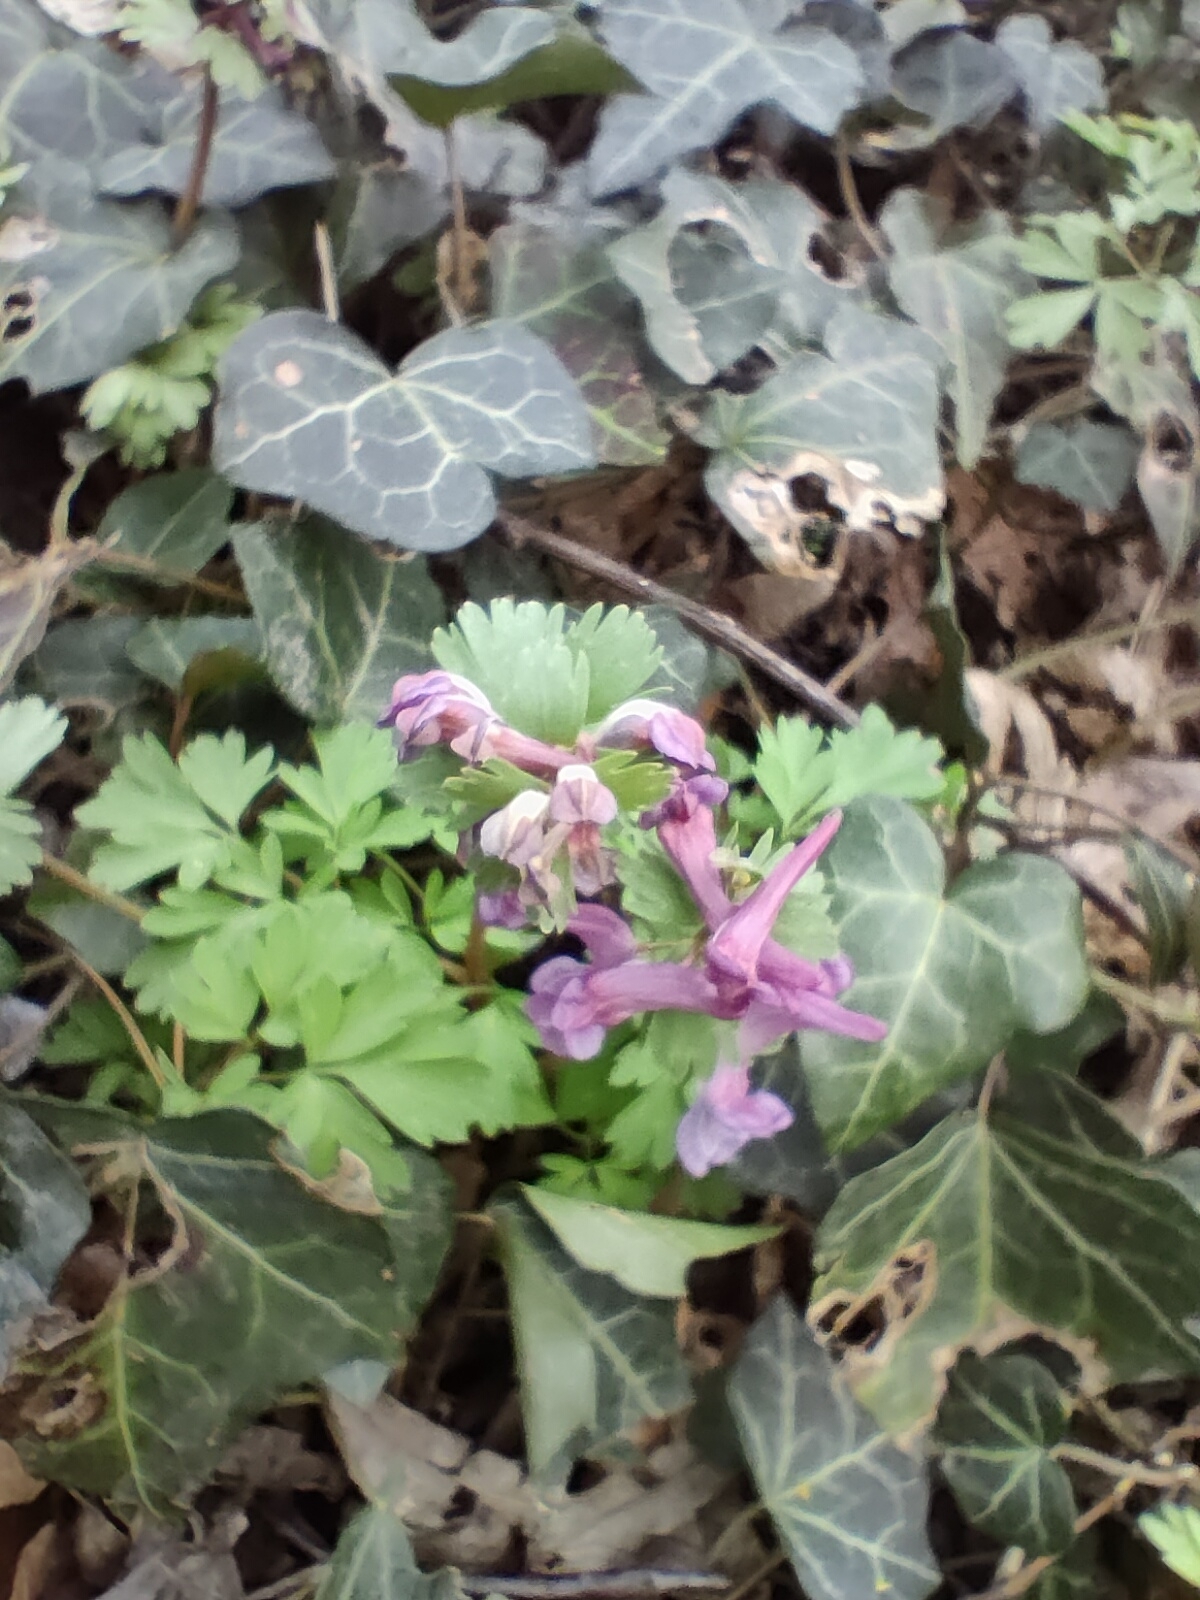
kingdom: Plantae
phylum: Tracheophyta
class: Magnoliopsida
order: Ranunculales
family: Papaveraceae
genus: Corydalis
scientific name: Corydalis solida
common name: Bird-in-a-bush
